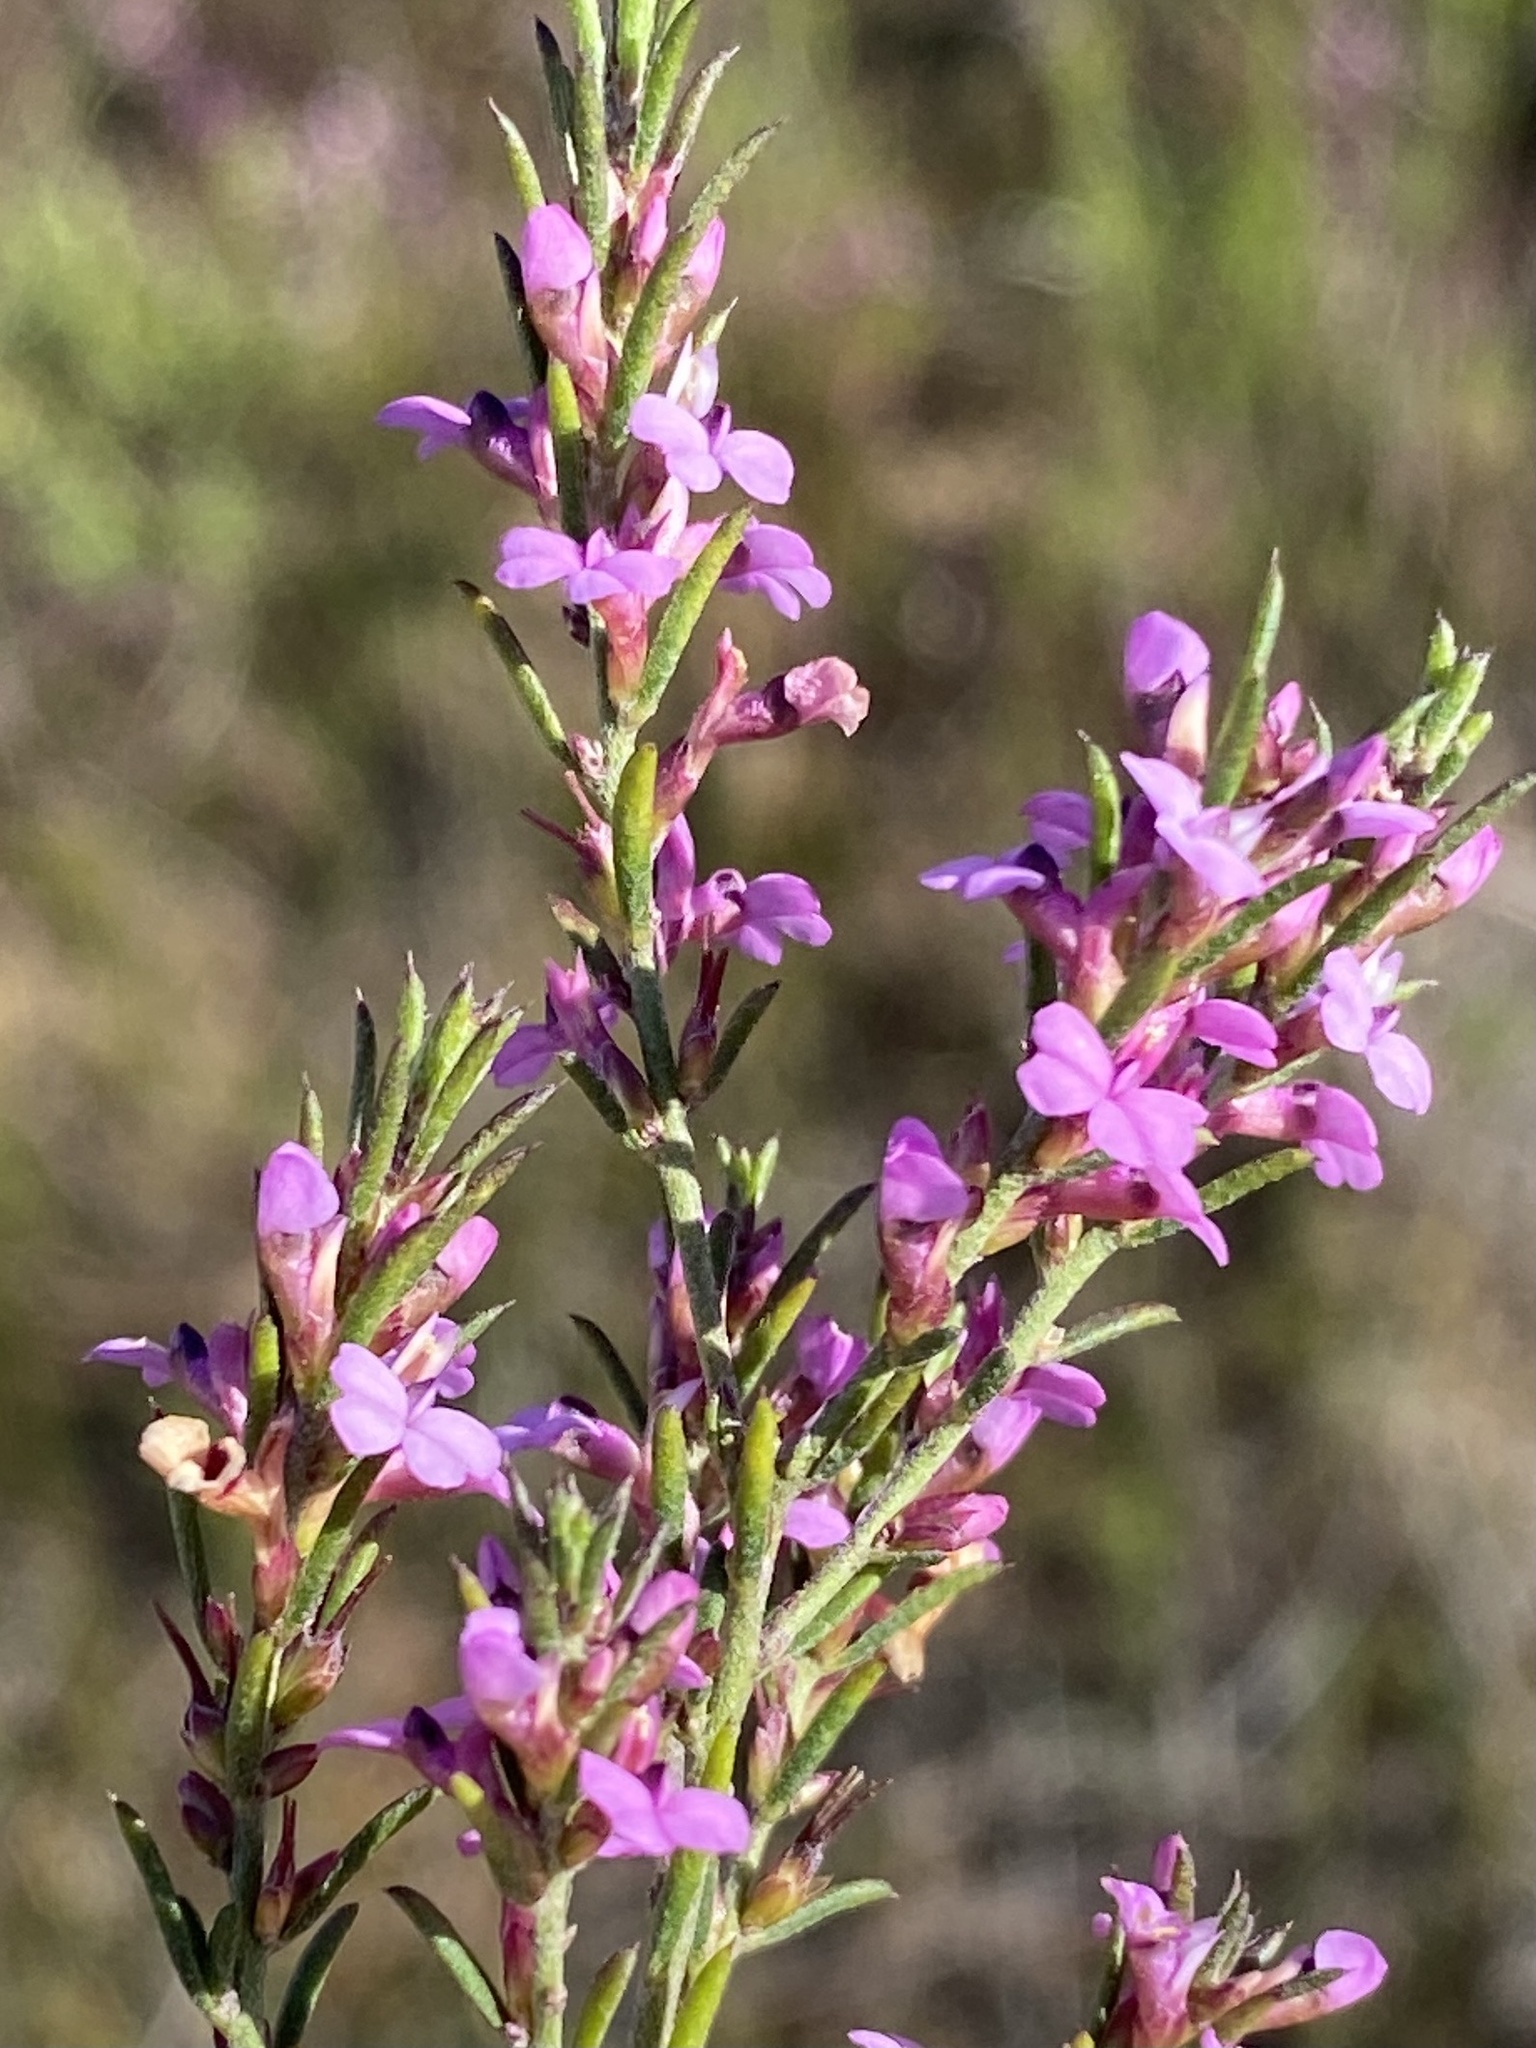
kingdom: Plantae
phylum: Tracheophyta
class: Magnoliopsida
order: Fabales
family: Polygalaceae
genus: Muraltia
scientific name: Muraltia empleuridioides
